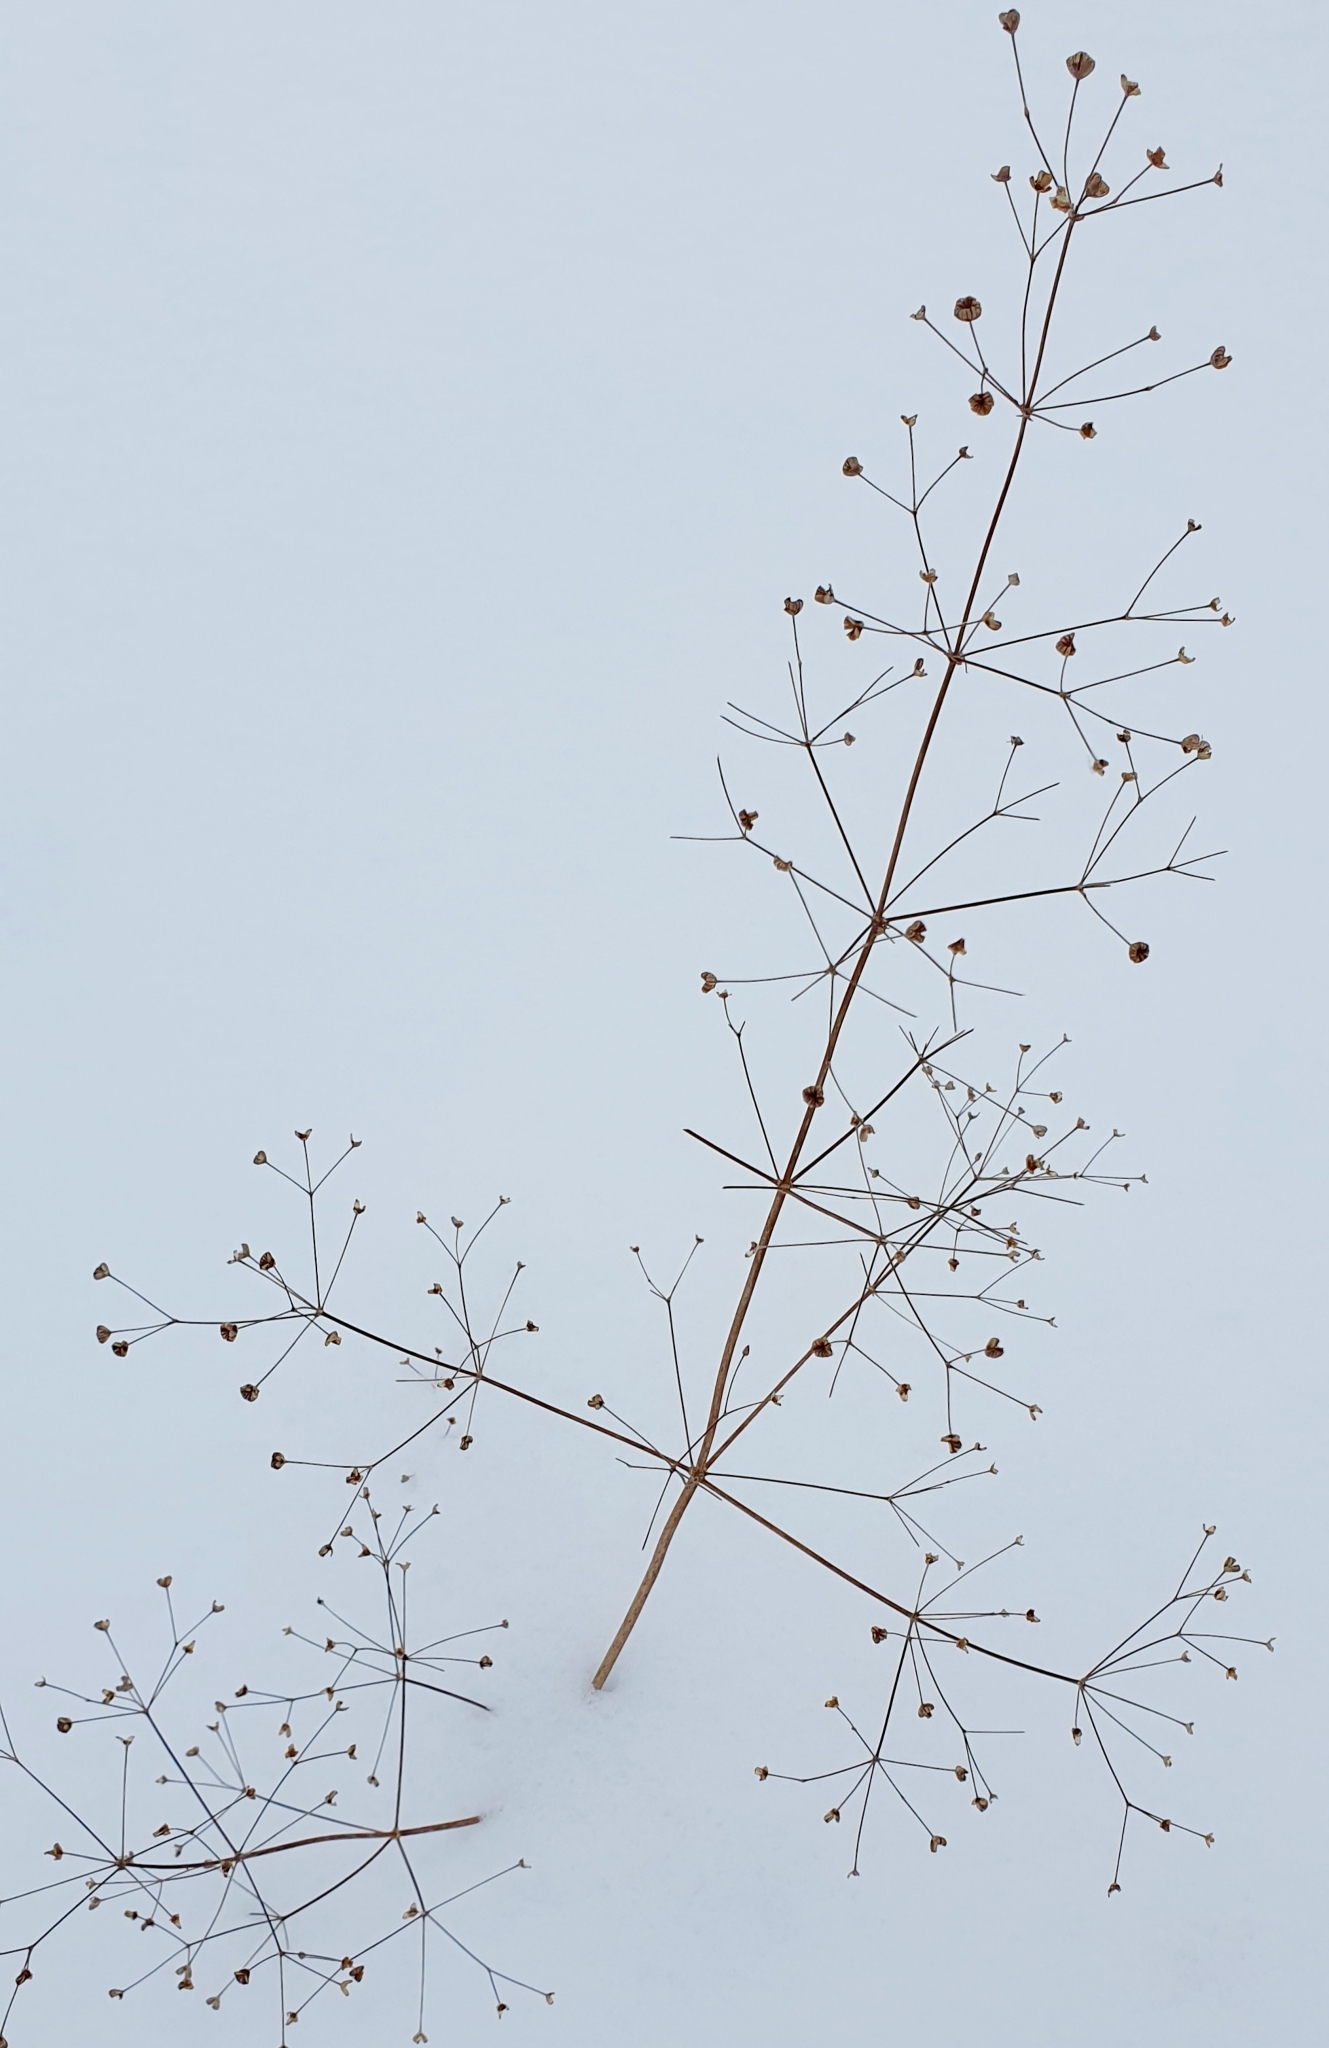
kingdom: Plantae
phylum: Tracheophyta
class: Liliopsida
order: Alismatales
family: Alismataceae
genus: Alisma
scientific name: Alisma plantago-aquatica
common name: Water-plantain
